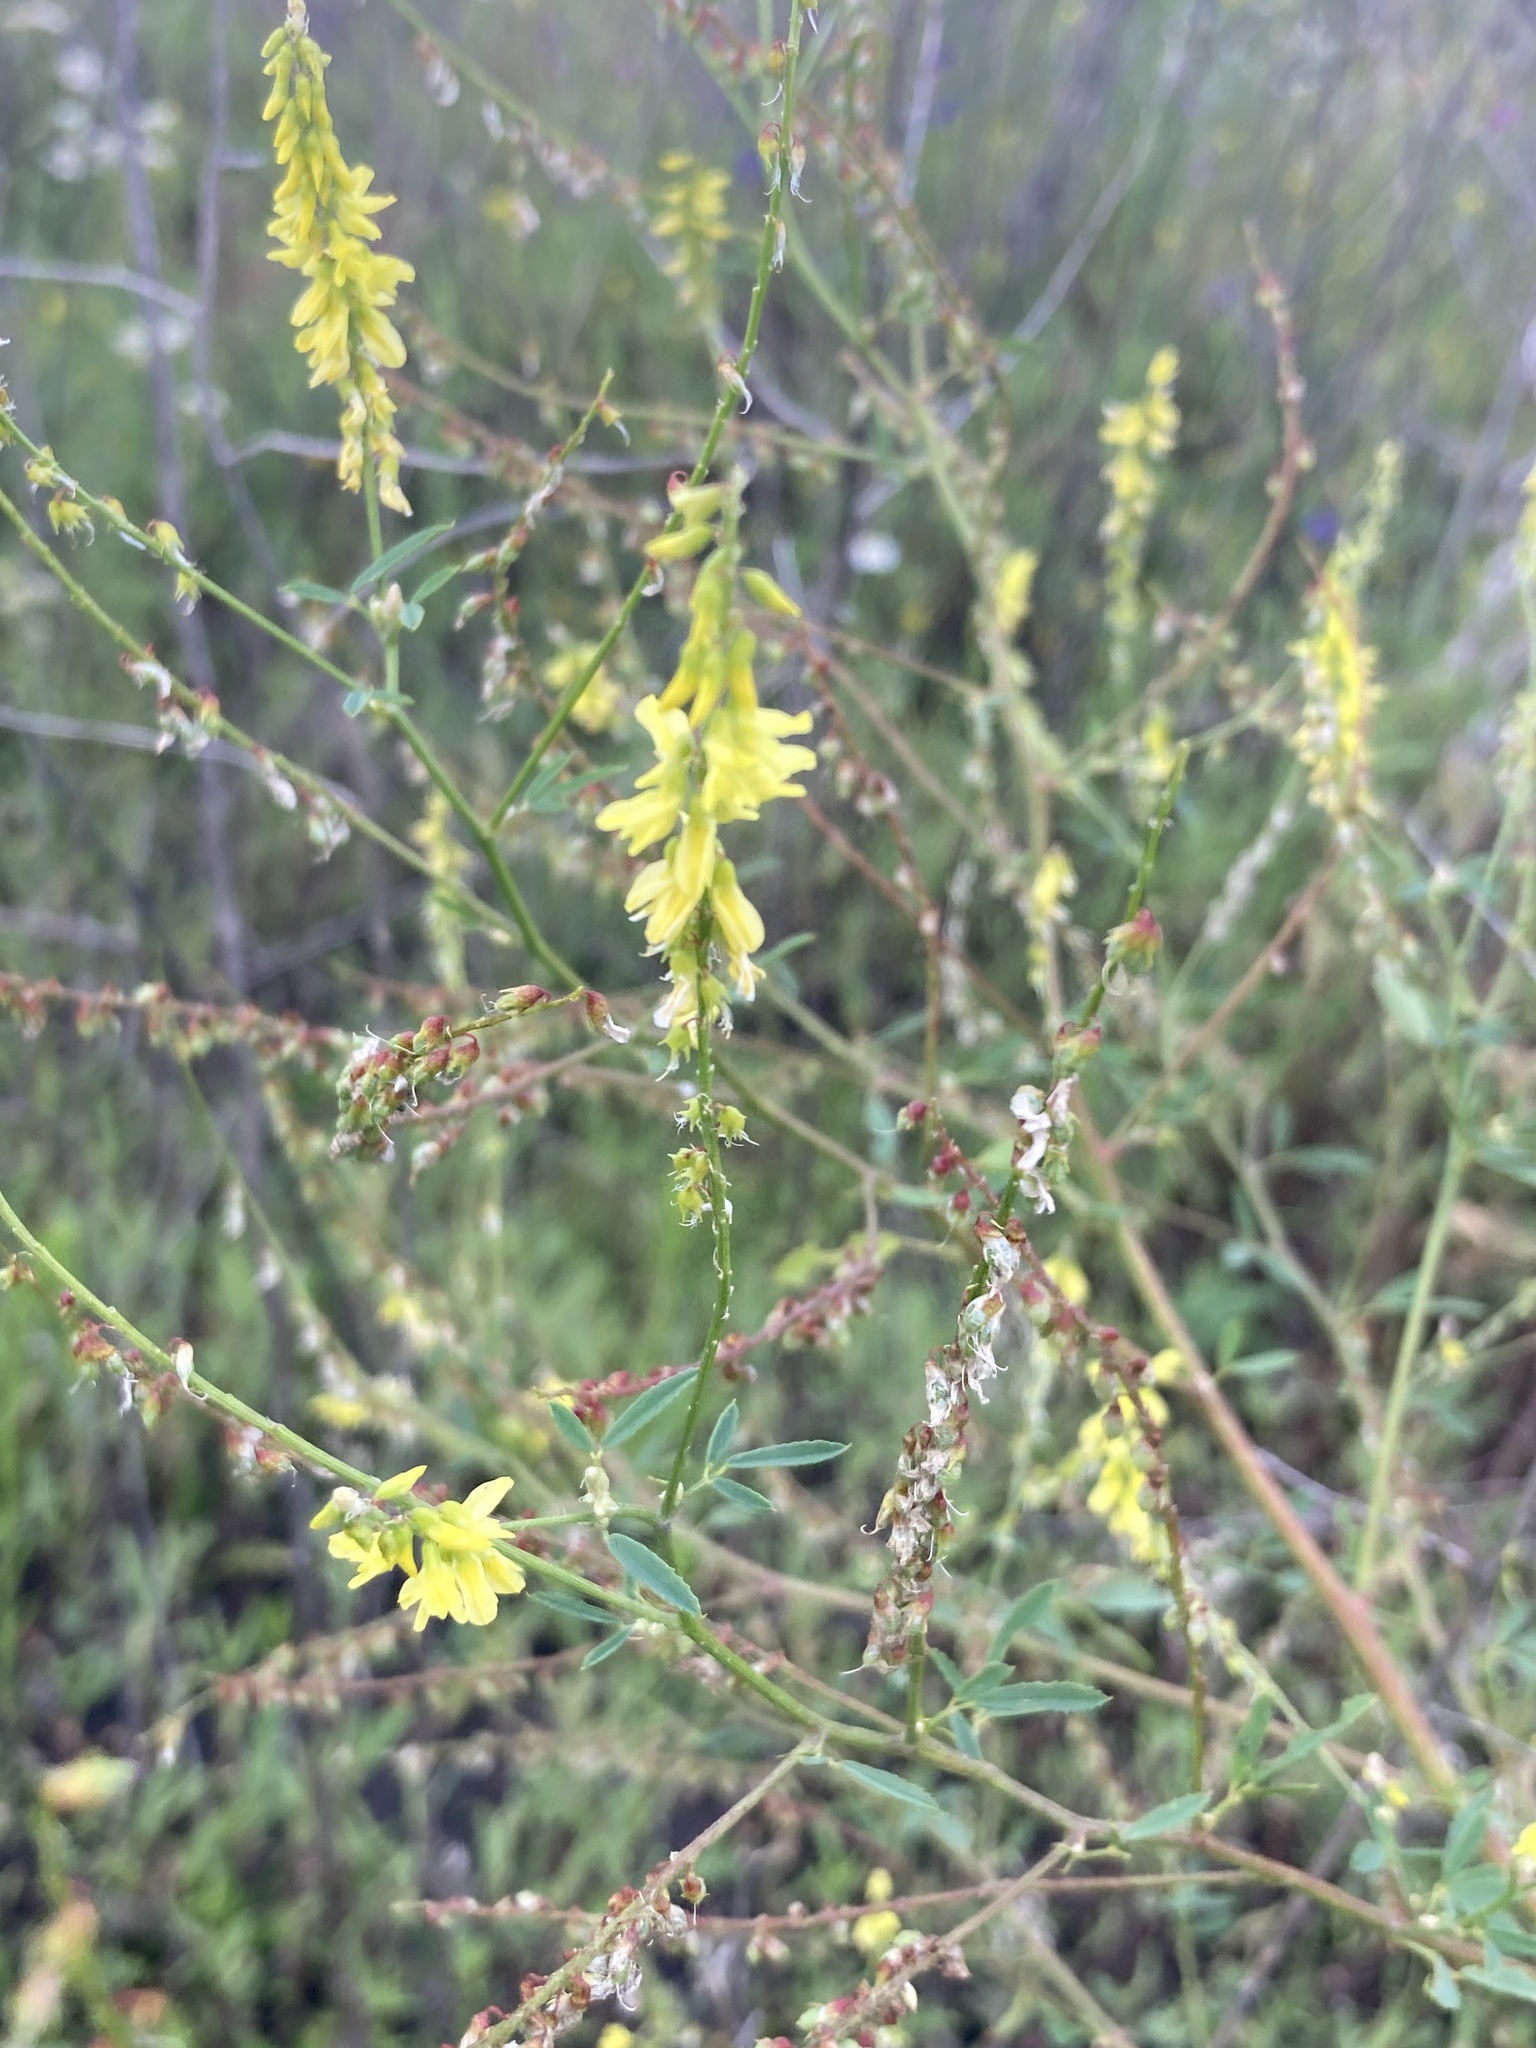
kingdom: Plantae
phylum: Tracheophyta
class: Magnoliopsida
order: Fabales
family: Fabaceae
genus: Melilotus
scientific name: Melilotus officinalis
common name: Sweetclover
